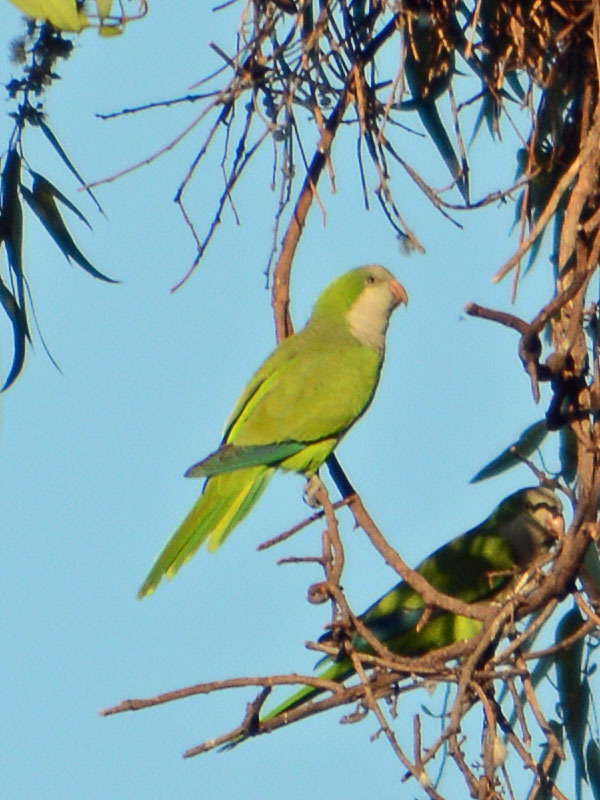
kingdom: Animalia
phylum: Chordata
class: Aves
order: Psittaciformes
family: Psittacidae
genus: Myiopsitta
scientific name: Myiopsitta monachus
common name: Monk parakeet
